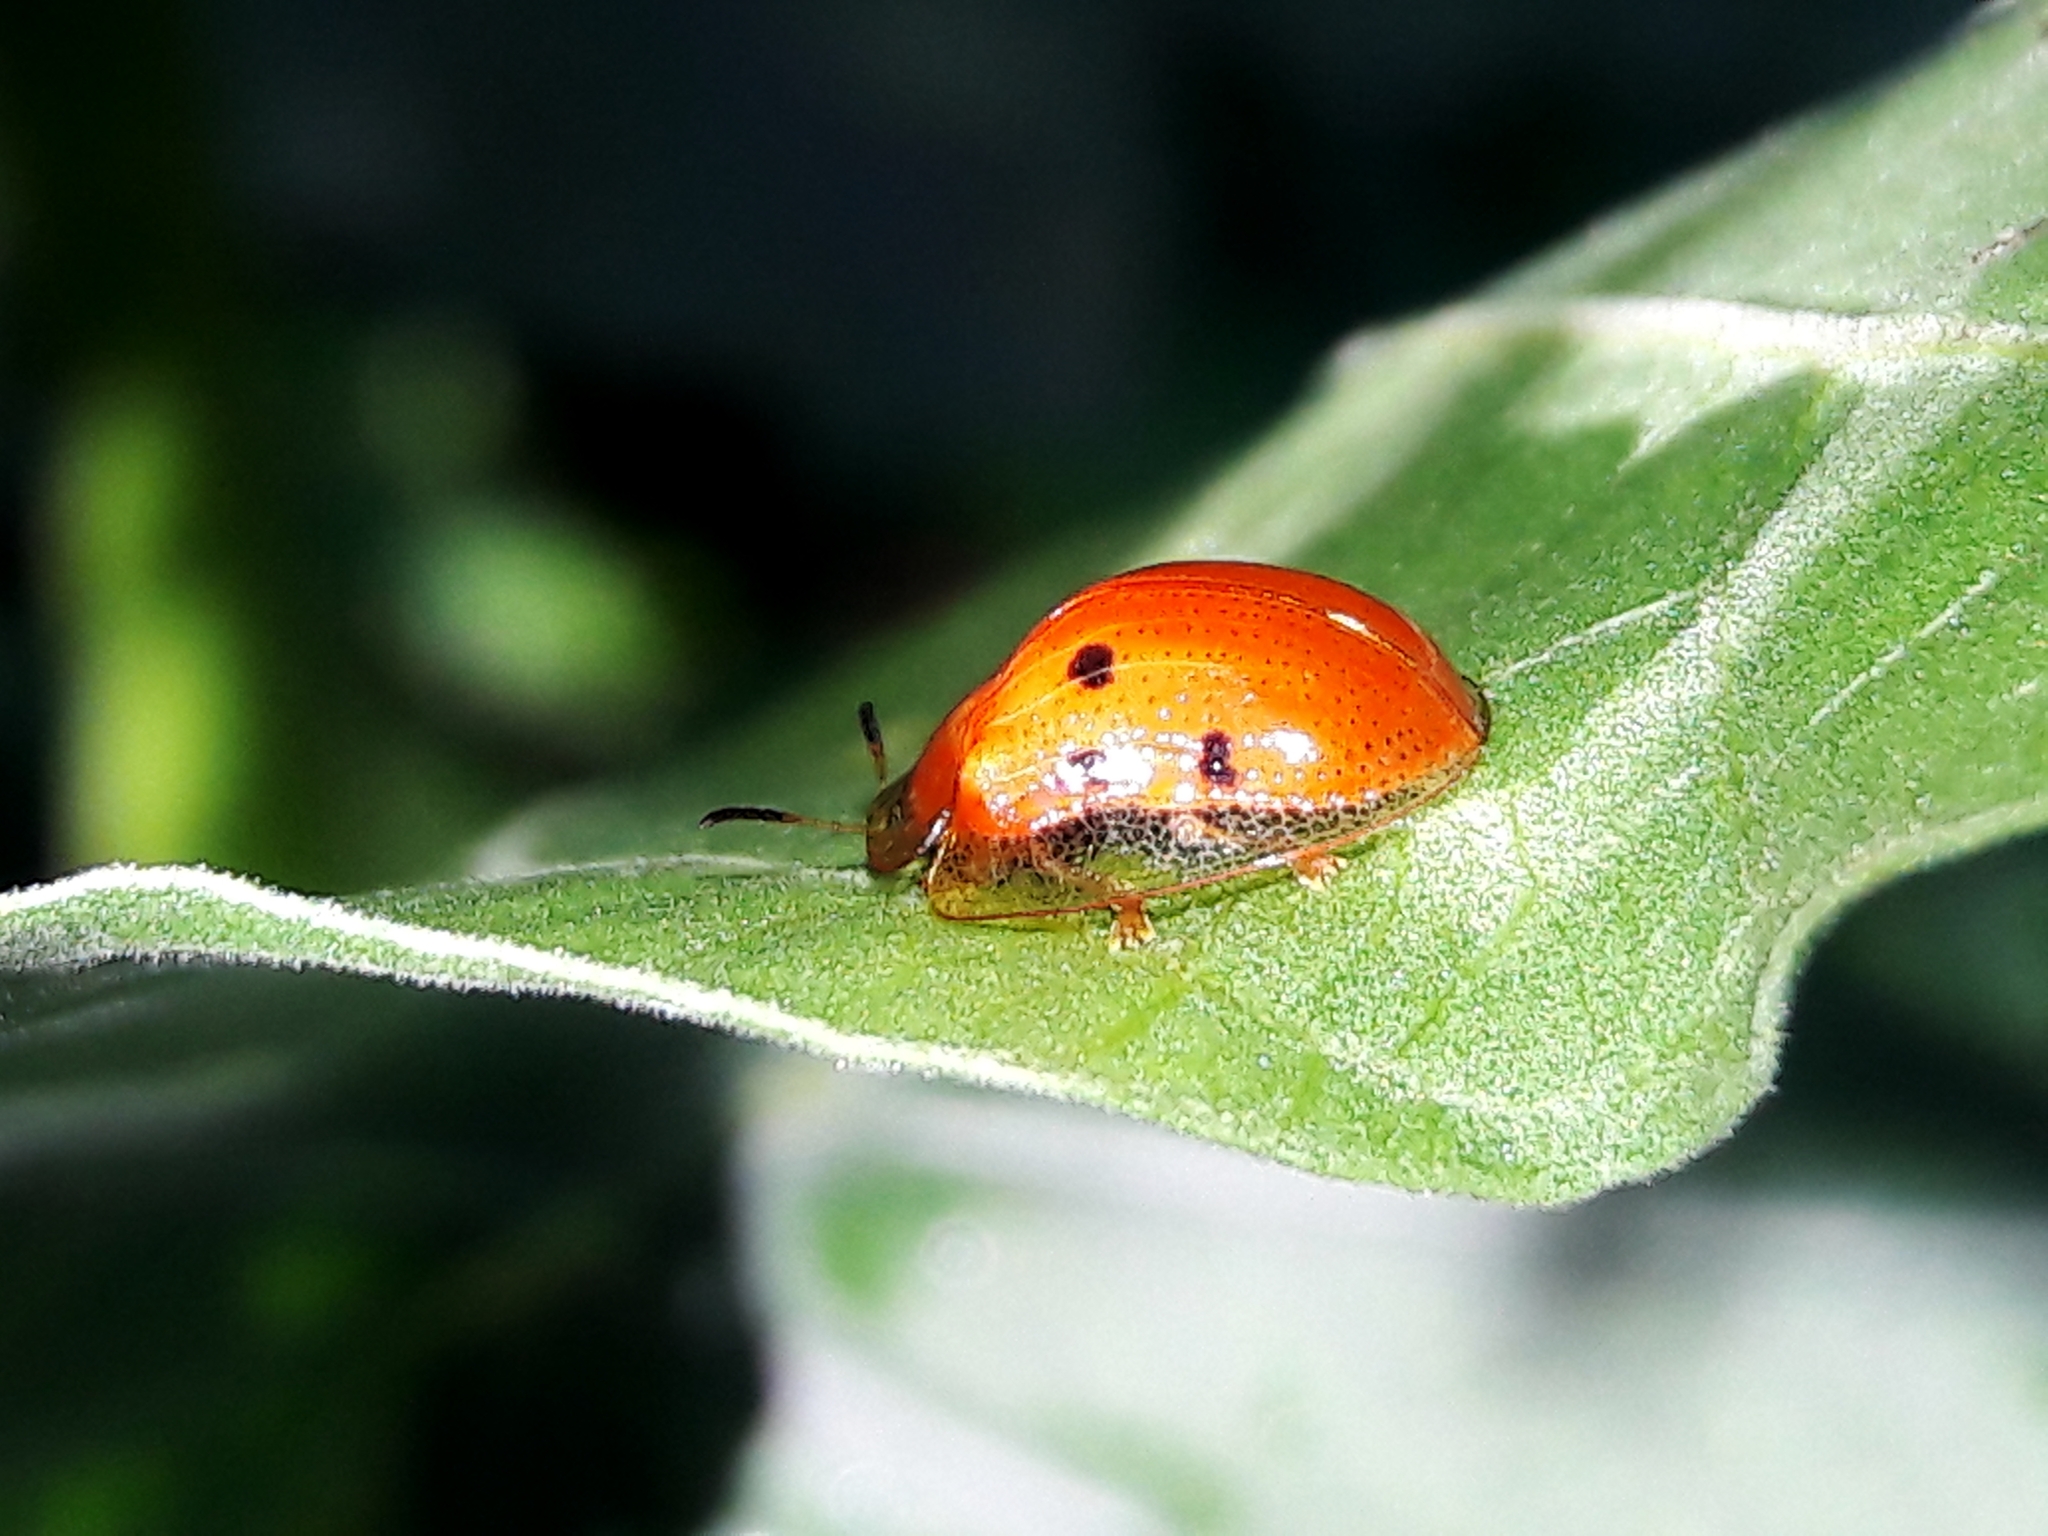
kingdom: Animalia
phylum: Arthropoda
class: Insecta
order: Coleoptera
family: Chrysomelidae
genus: Charidotella
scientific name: Charidotella sexpunctata
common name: Golden tortoise beetle
